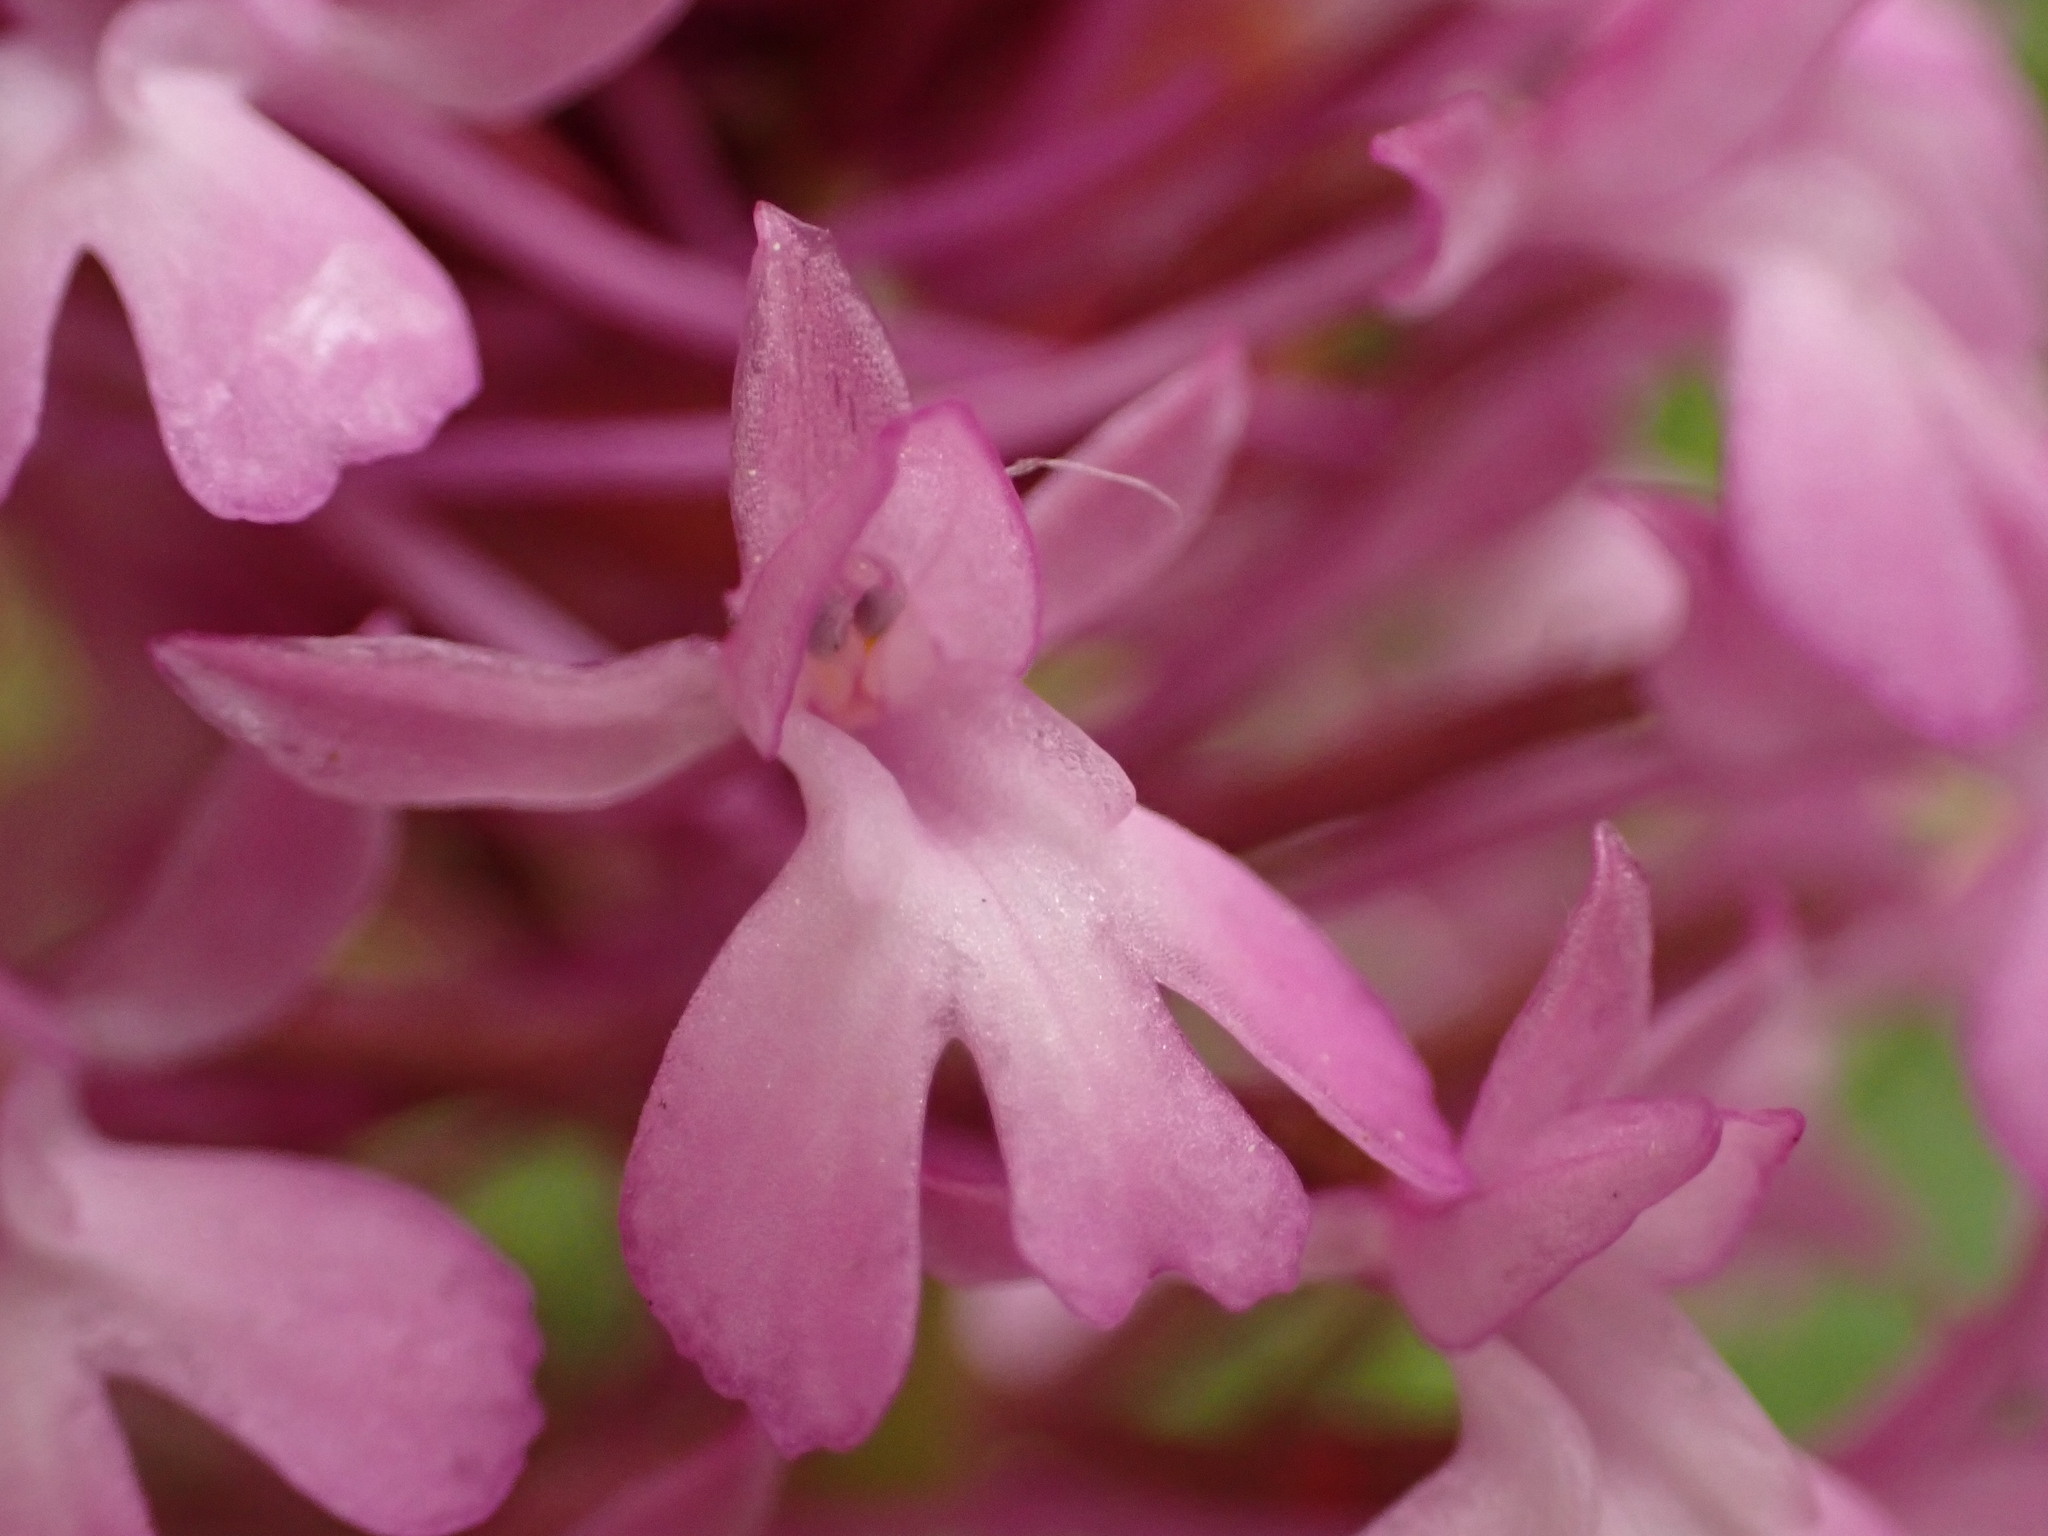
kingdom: Plantae
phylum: Tracheophyta
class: Liliopsida
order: Asparagales
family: Orchidaceae
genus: Anacamptis
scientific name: Anacamptis pyramidalis
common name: Pyramidal orchid
